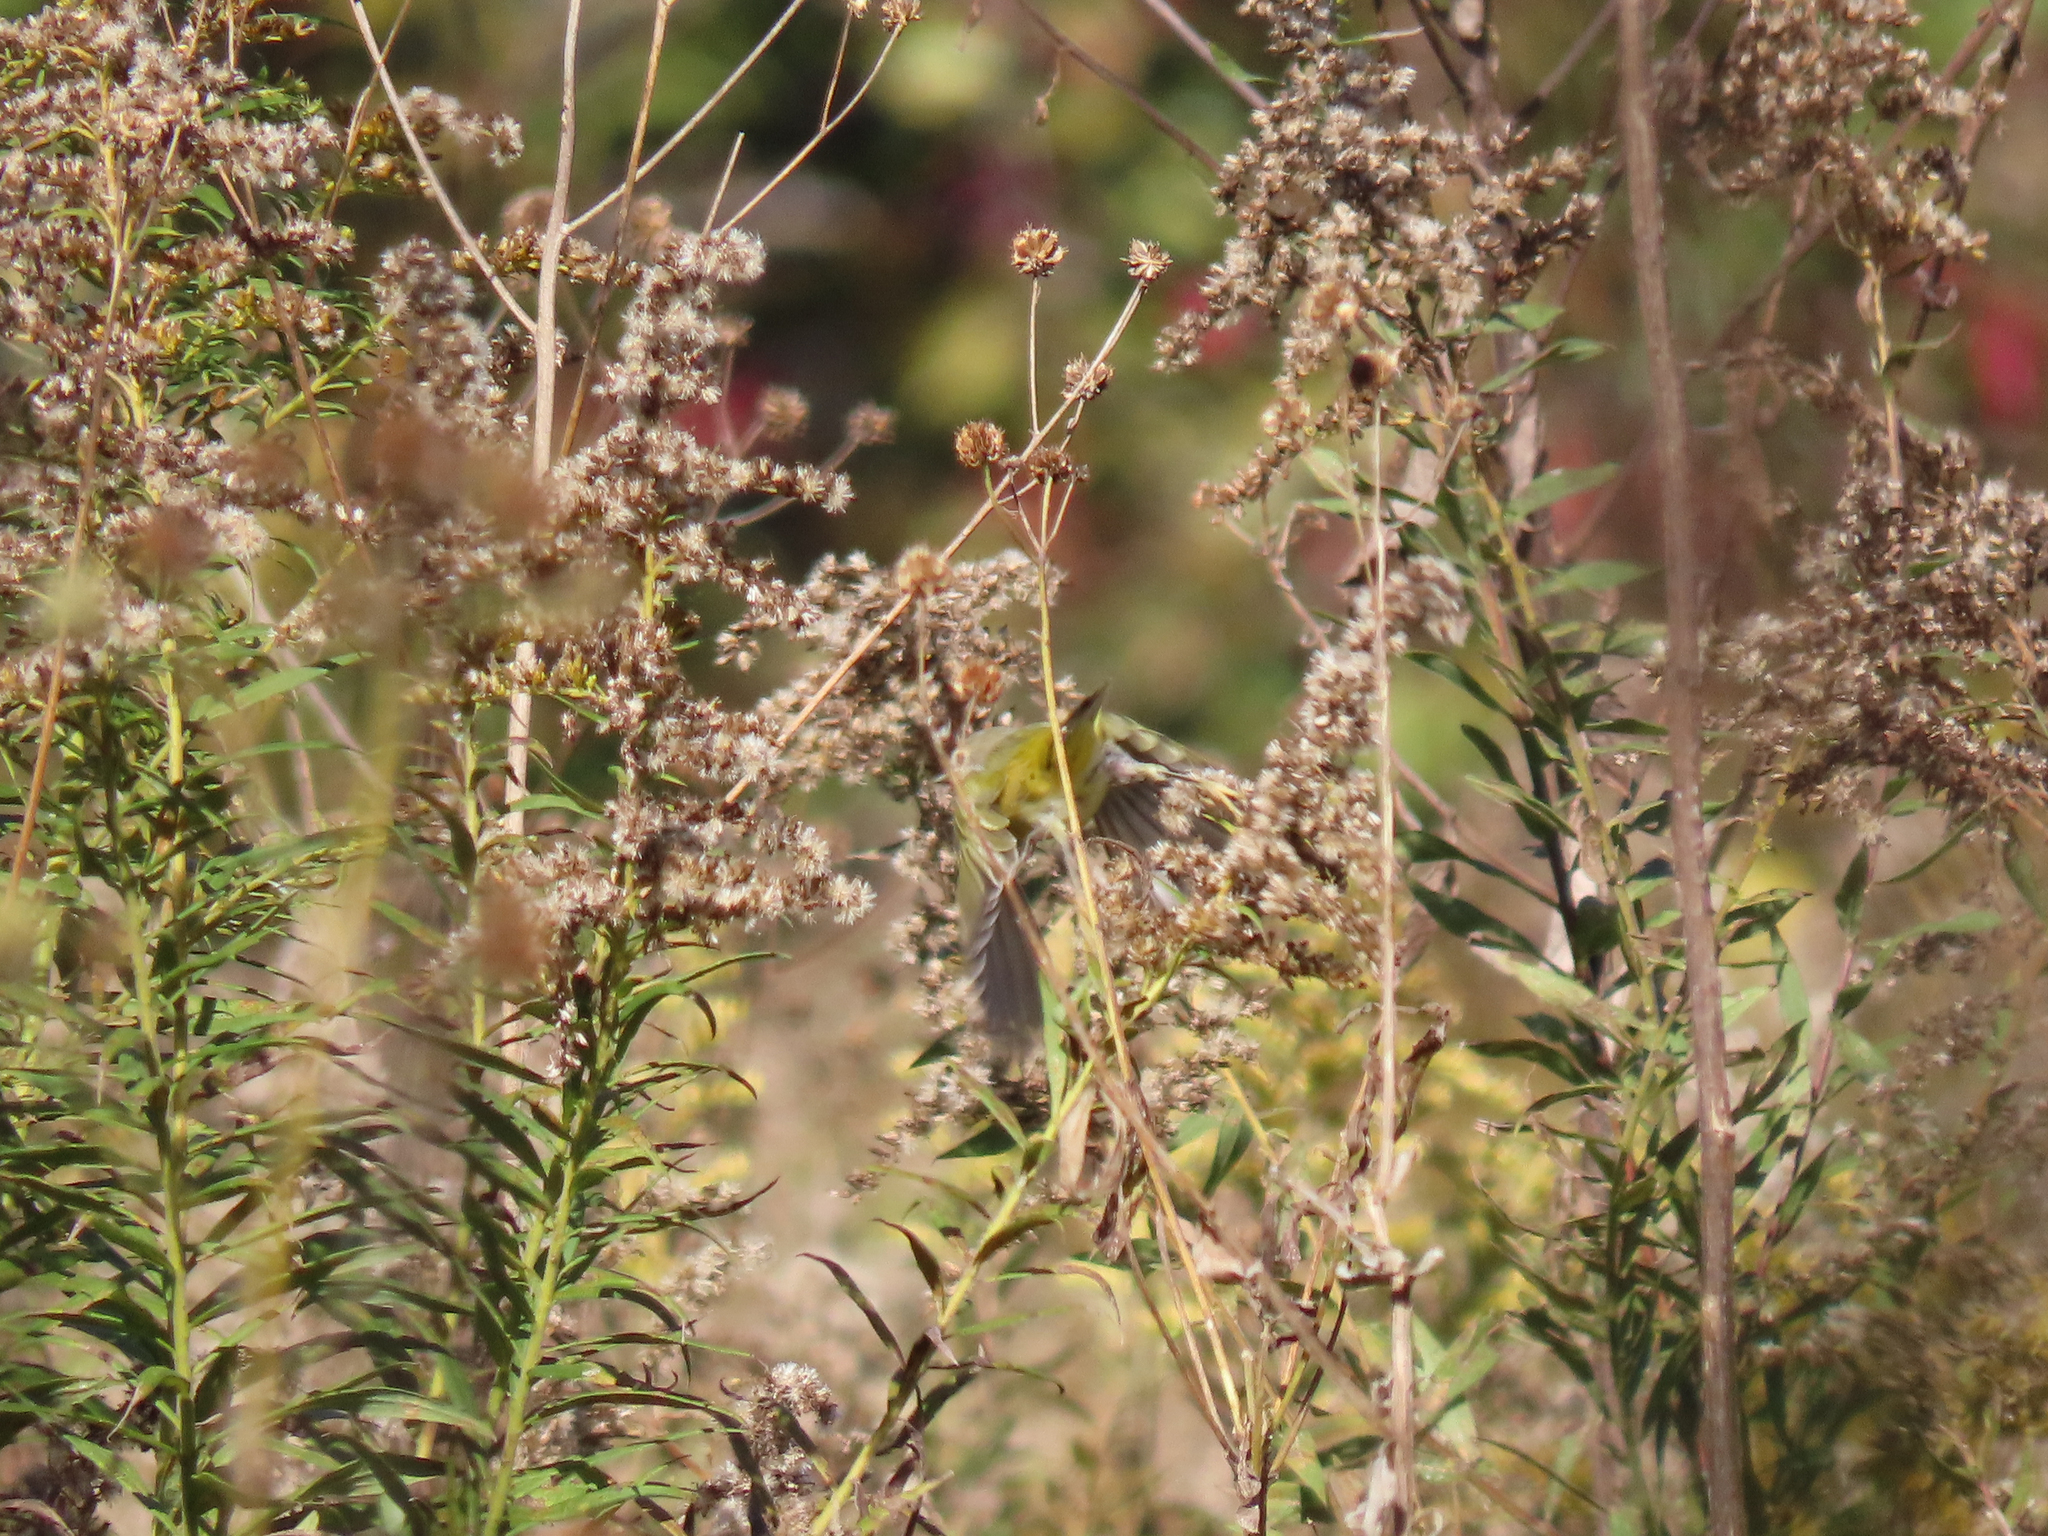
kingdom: Animalia
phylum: Chordata
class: Aves
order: Passeriformes
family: Parulidae
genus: Leiothlypis
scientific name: Leiothlypis ruficapilla
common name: Nashville warbler
